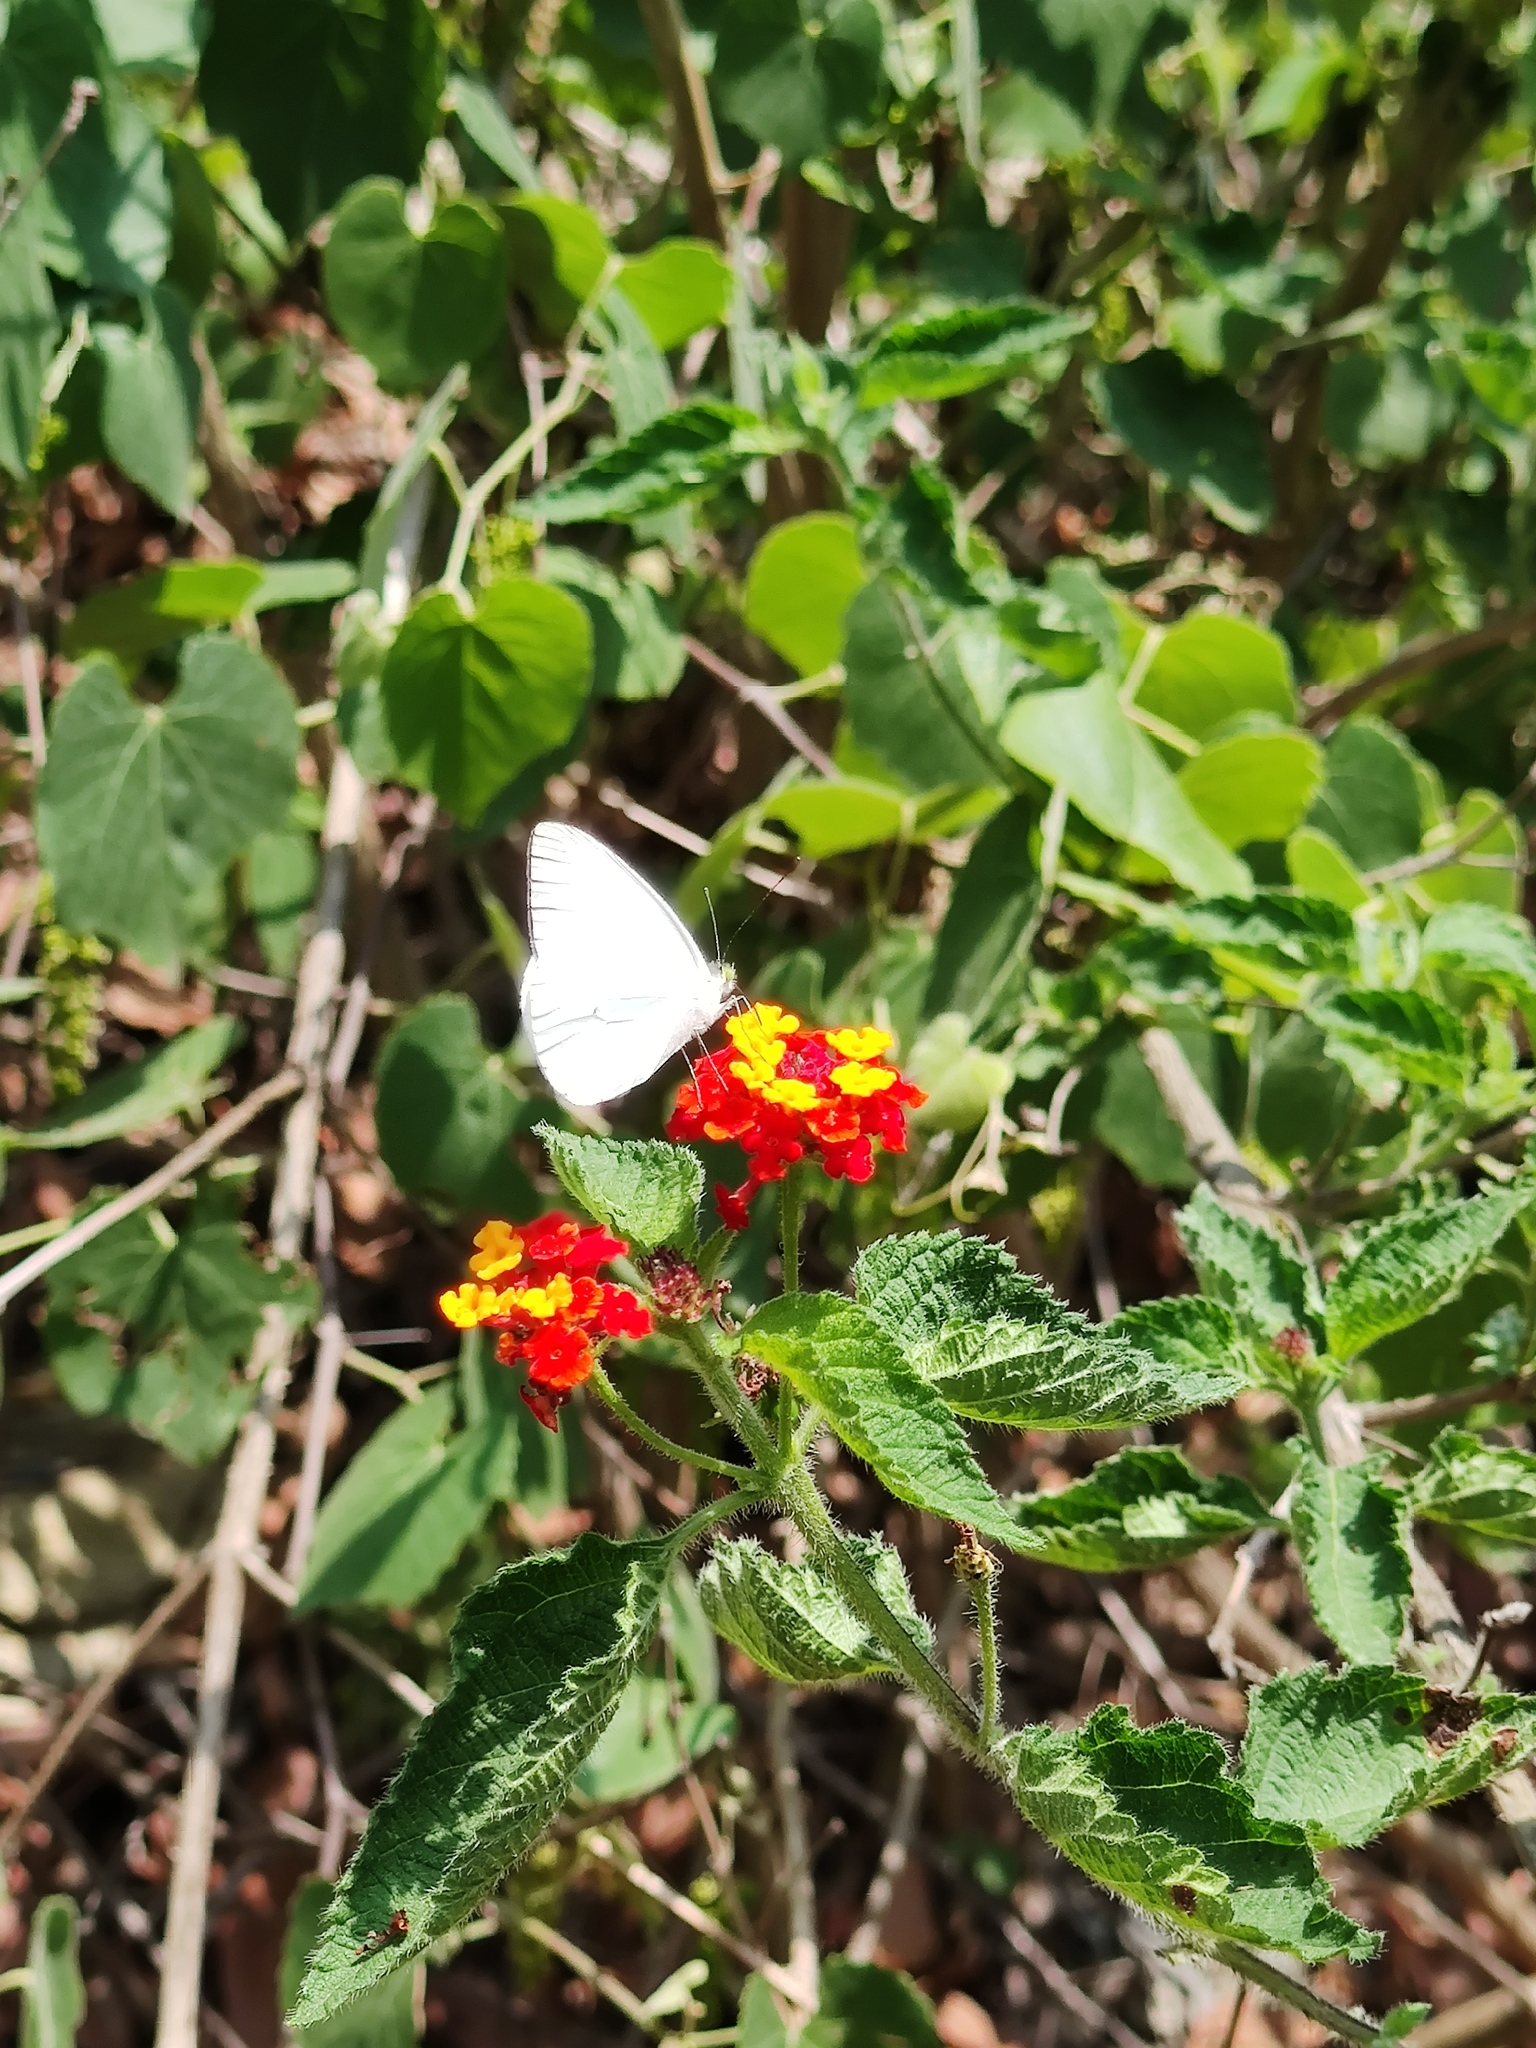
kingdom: Animalia
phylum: Arthropoda
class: Insecta
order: Lepidoptera
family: Pieridae
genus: Leptophobia
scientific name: Leptophobia aripa
